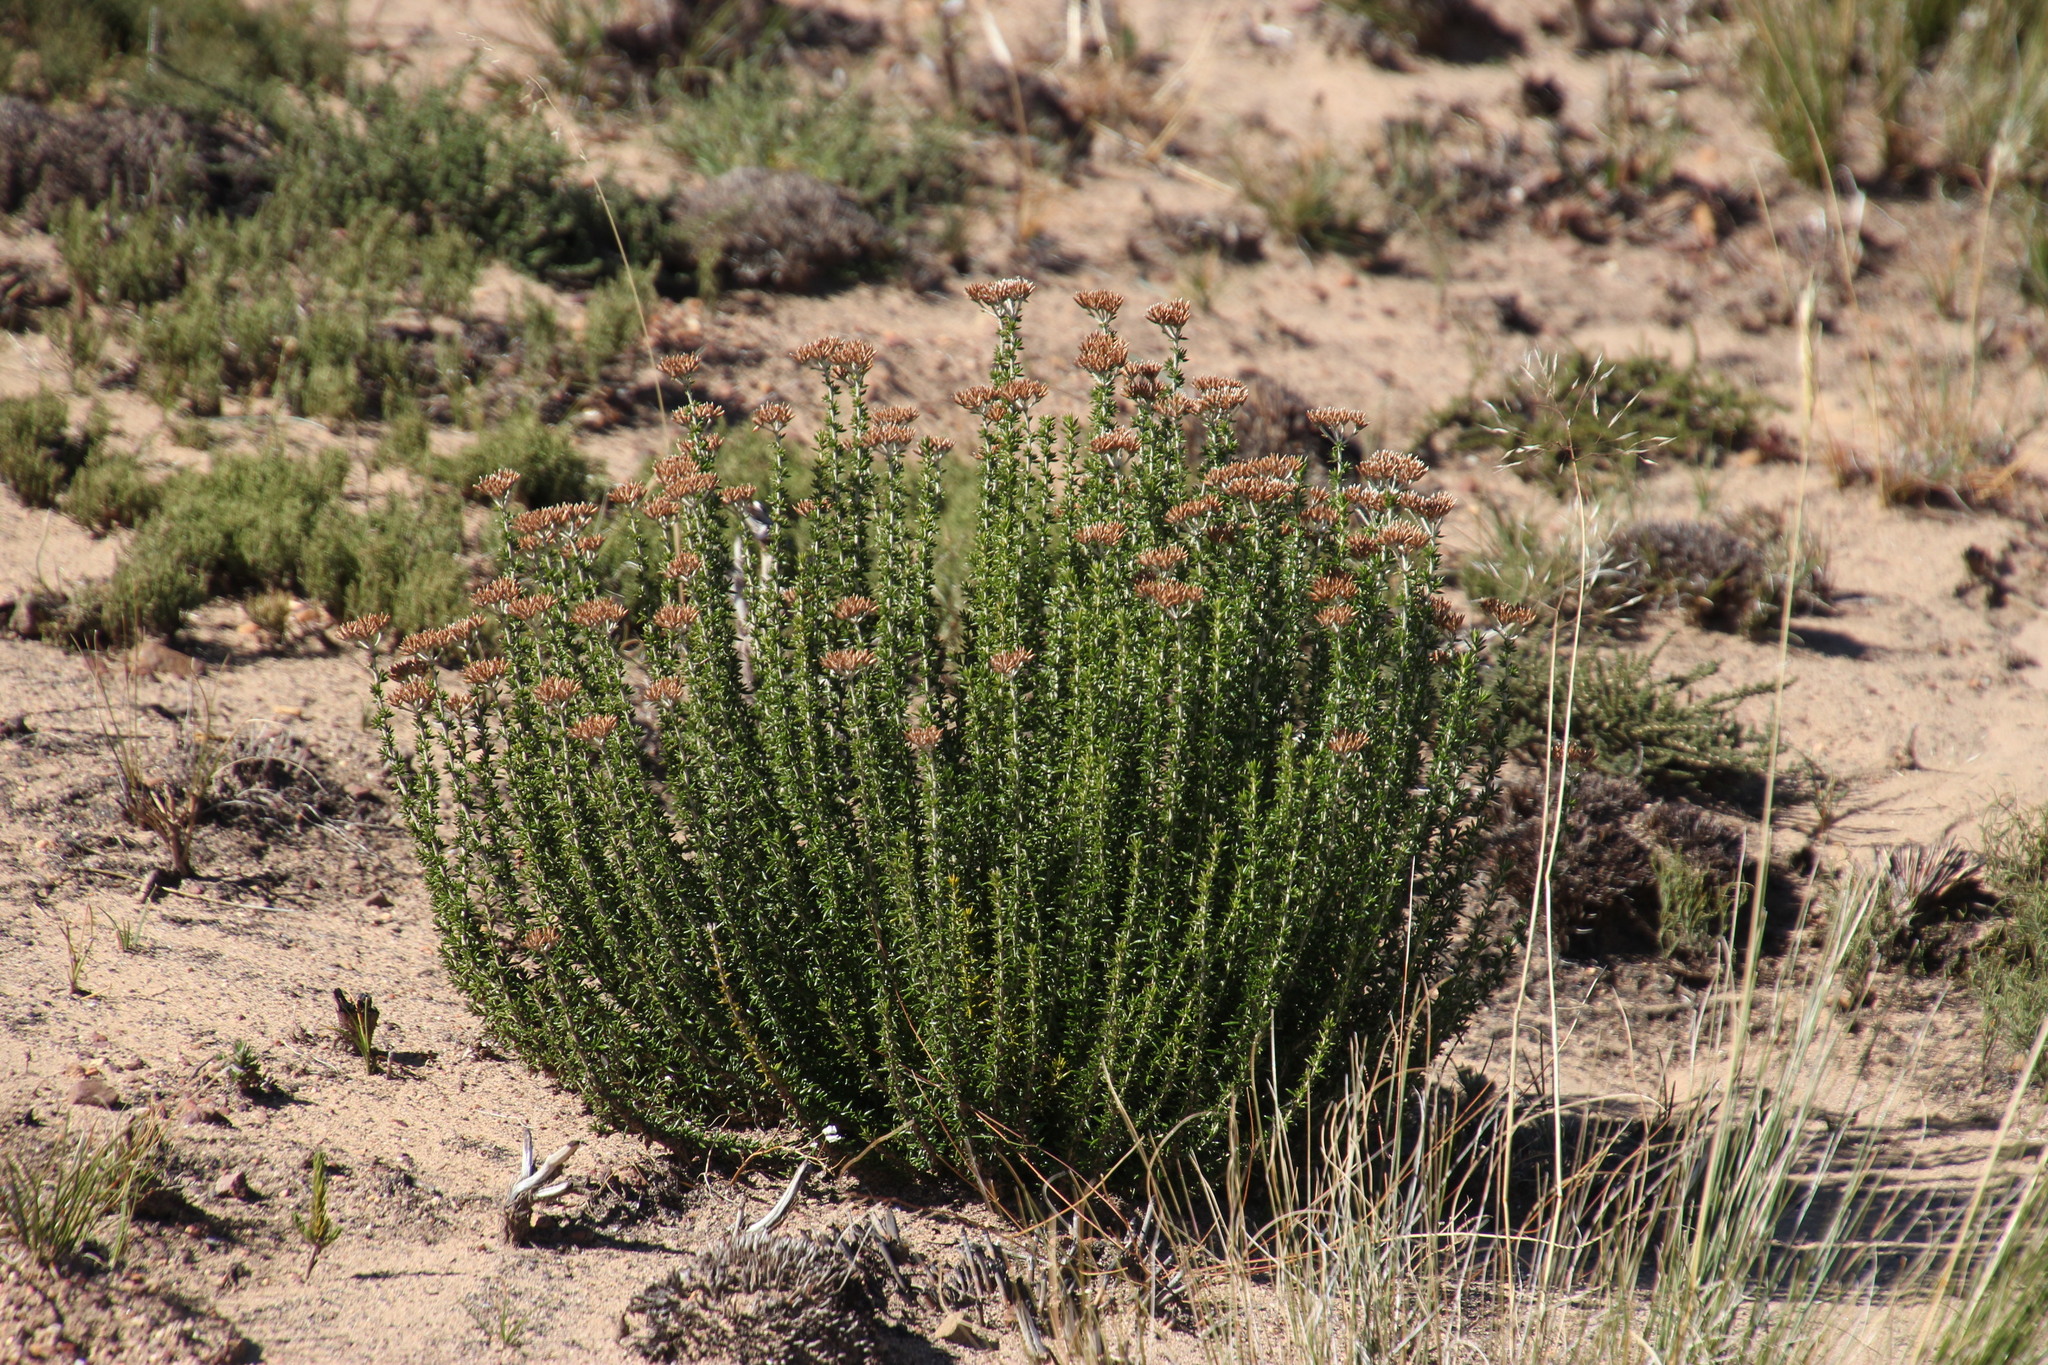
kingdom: Plantae
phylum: Tracheophyta
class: Magnoliopsida
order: Asterales
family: Asteraceae
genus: Metalasia
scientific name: Metalasia densa
